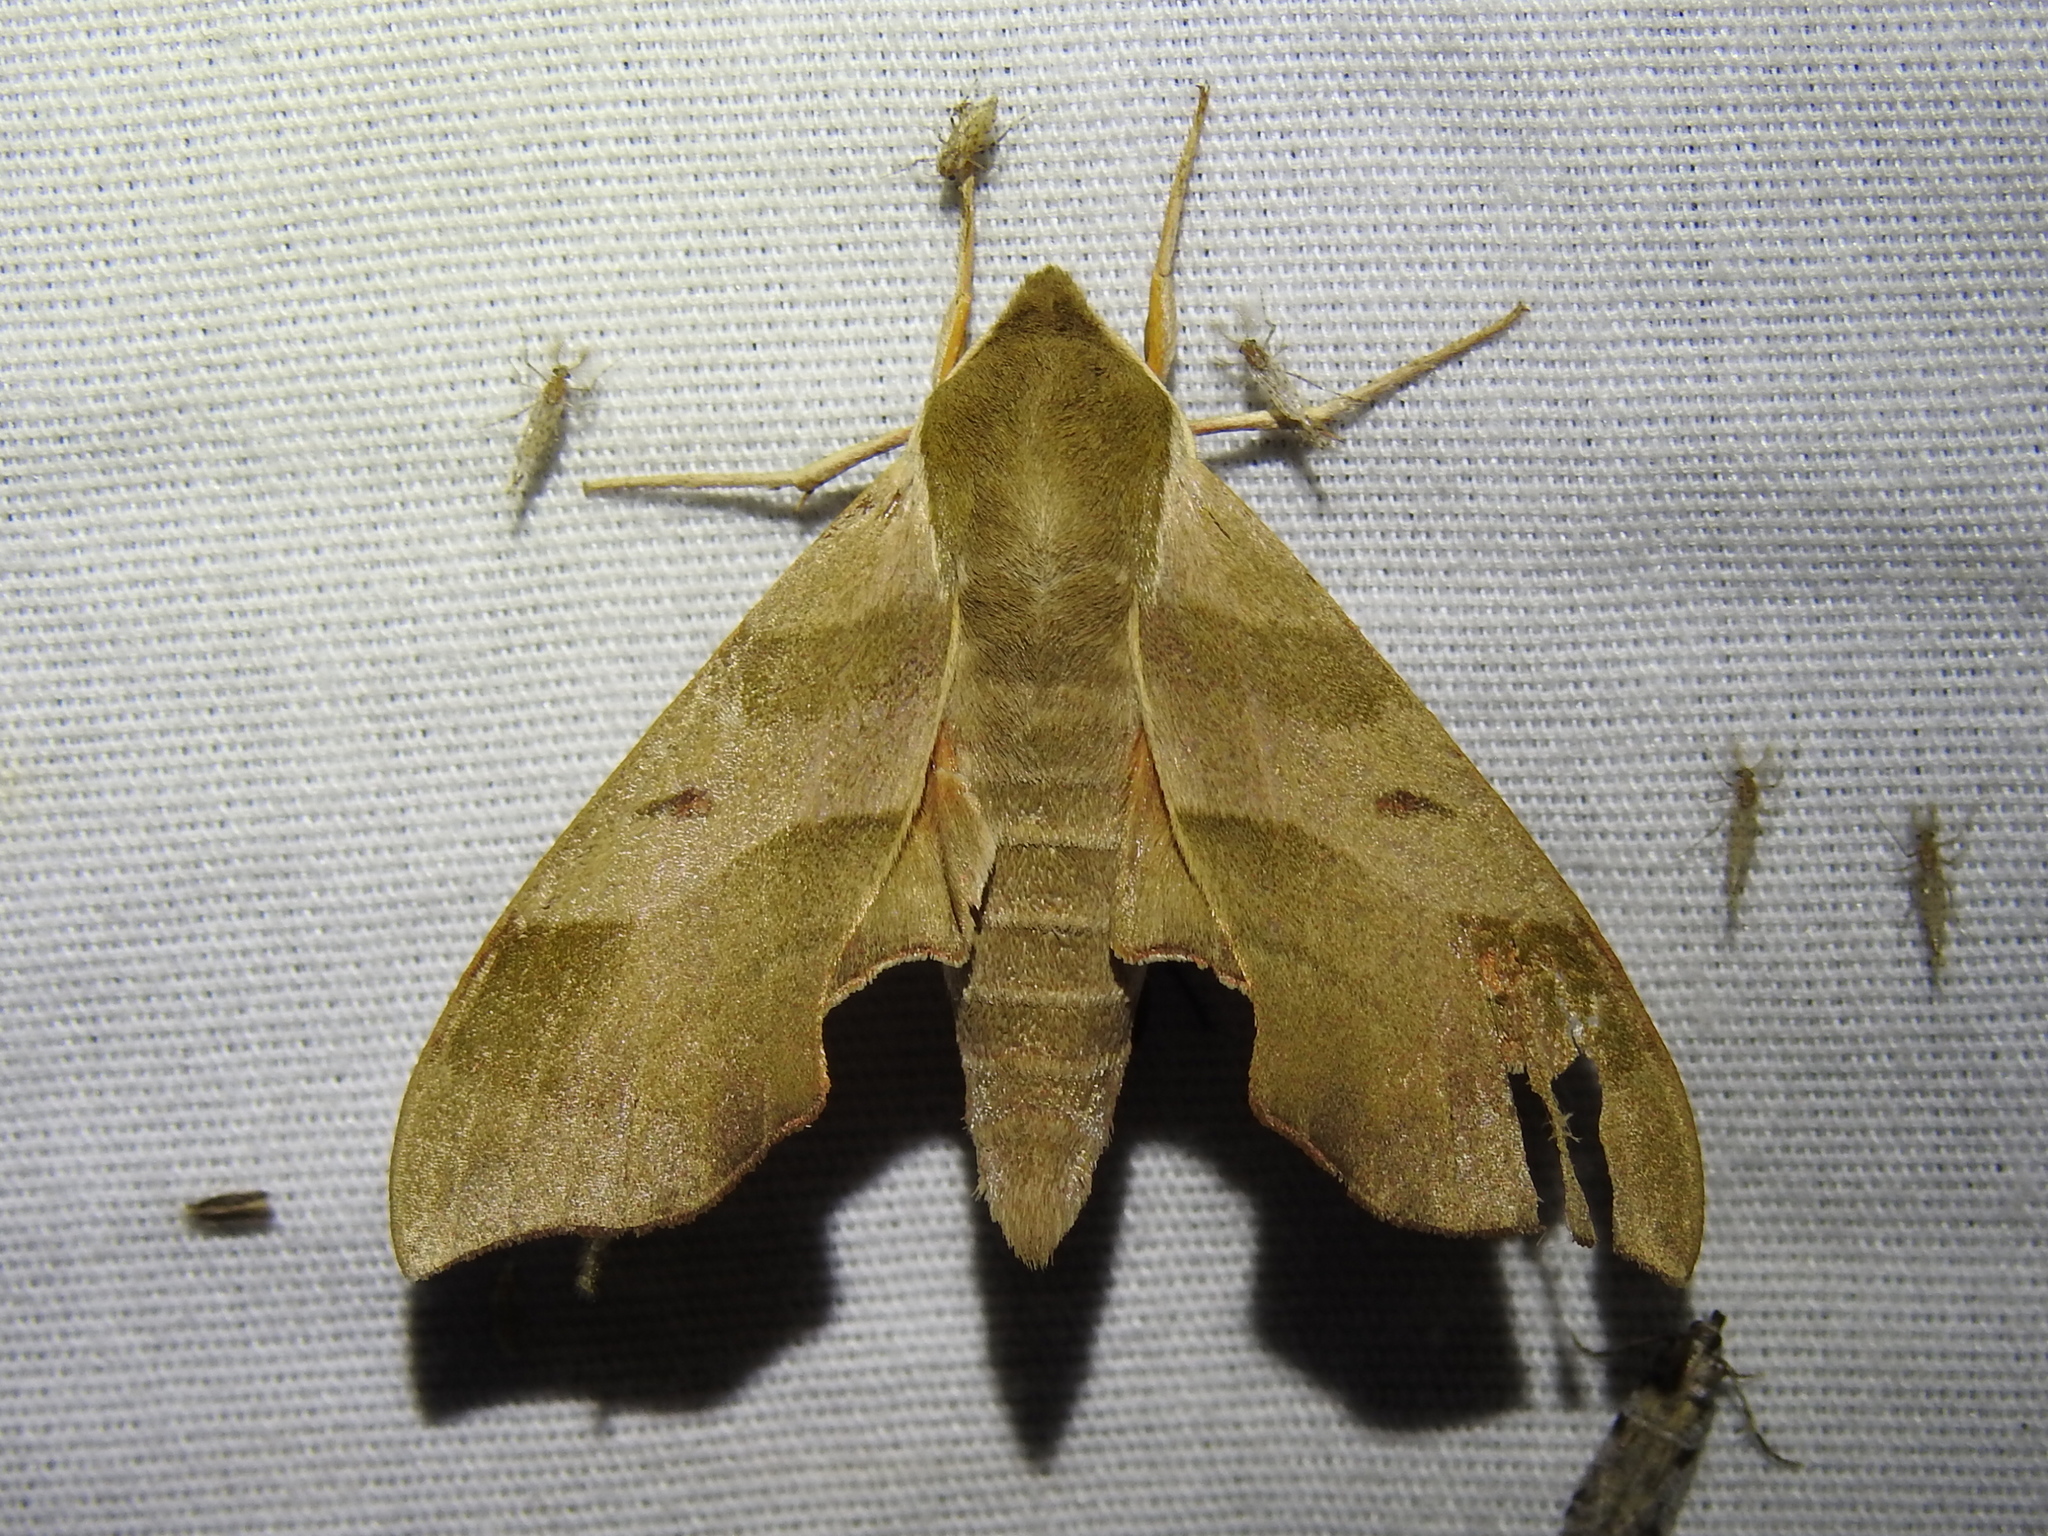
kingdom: Animalia
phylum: Arthropoda
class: Insecta
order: Lepidoptera
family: Sphingidae
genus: Darapsa
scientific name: Darapsa myron
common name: Hog sphinx
